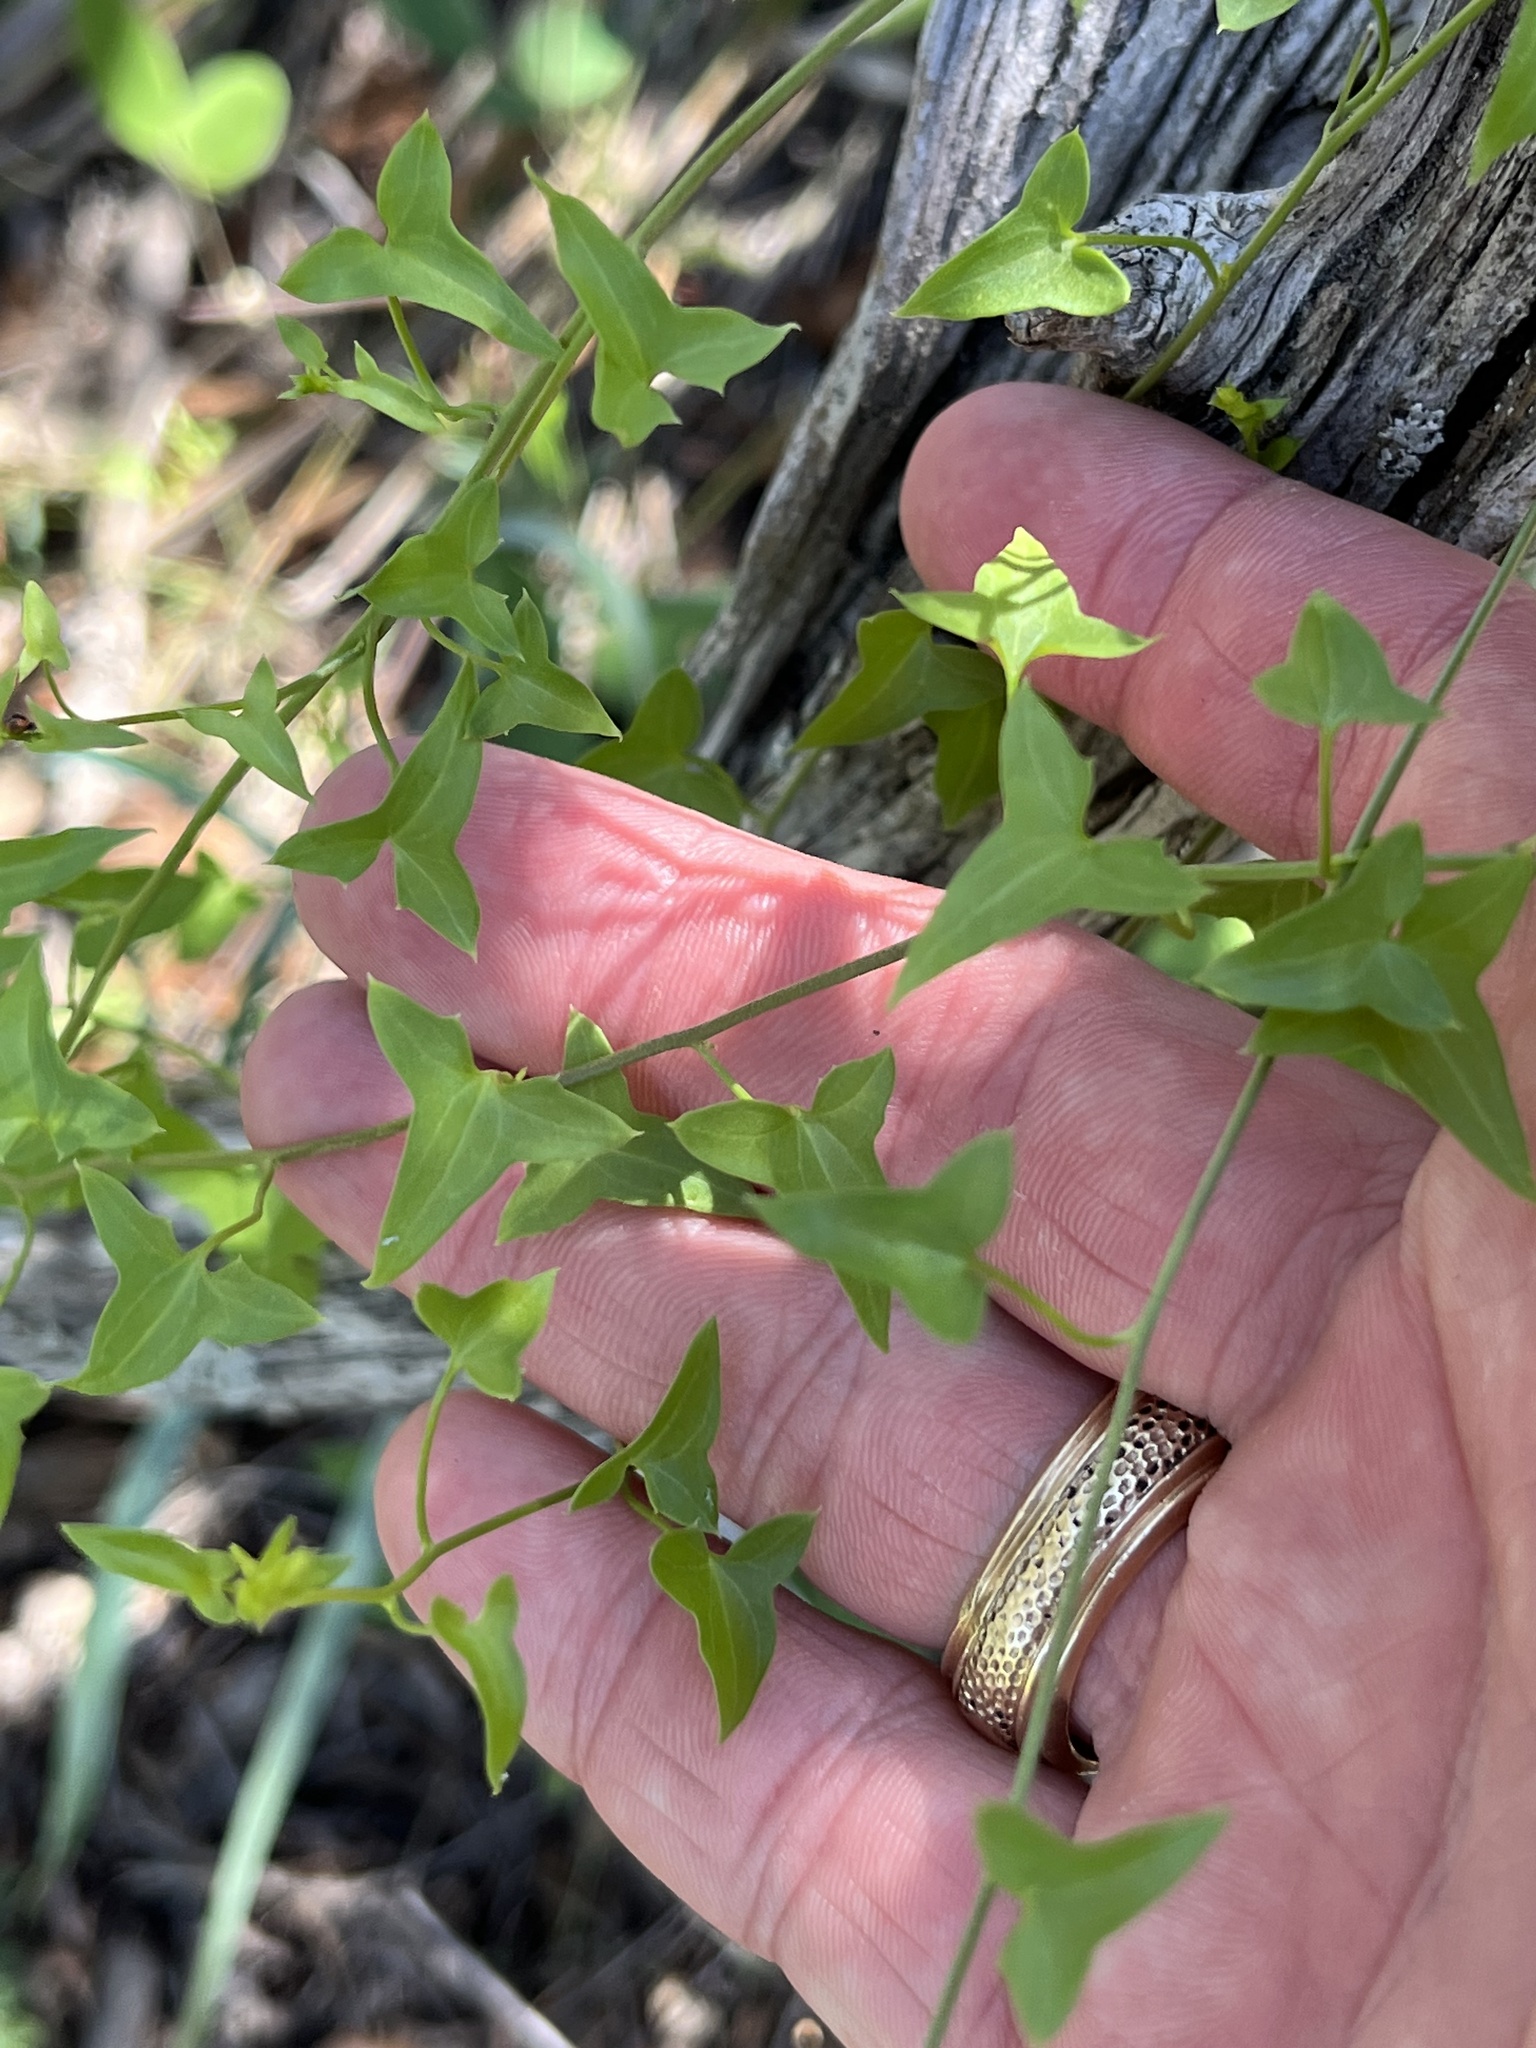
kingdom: Plantae
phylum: Tracheophyta
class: Magnoliopsida
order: Lamiales
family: Plantaginaceae
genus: Maurandella
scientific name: Maurandella antirrhiniflora
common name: Violet twining-snapdragon
